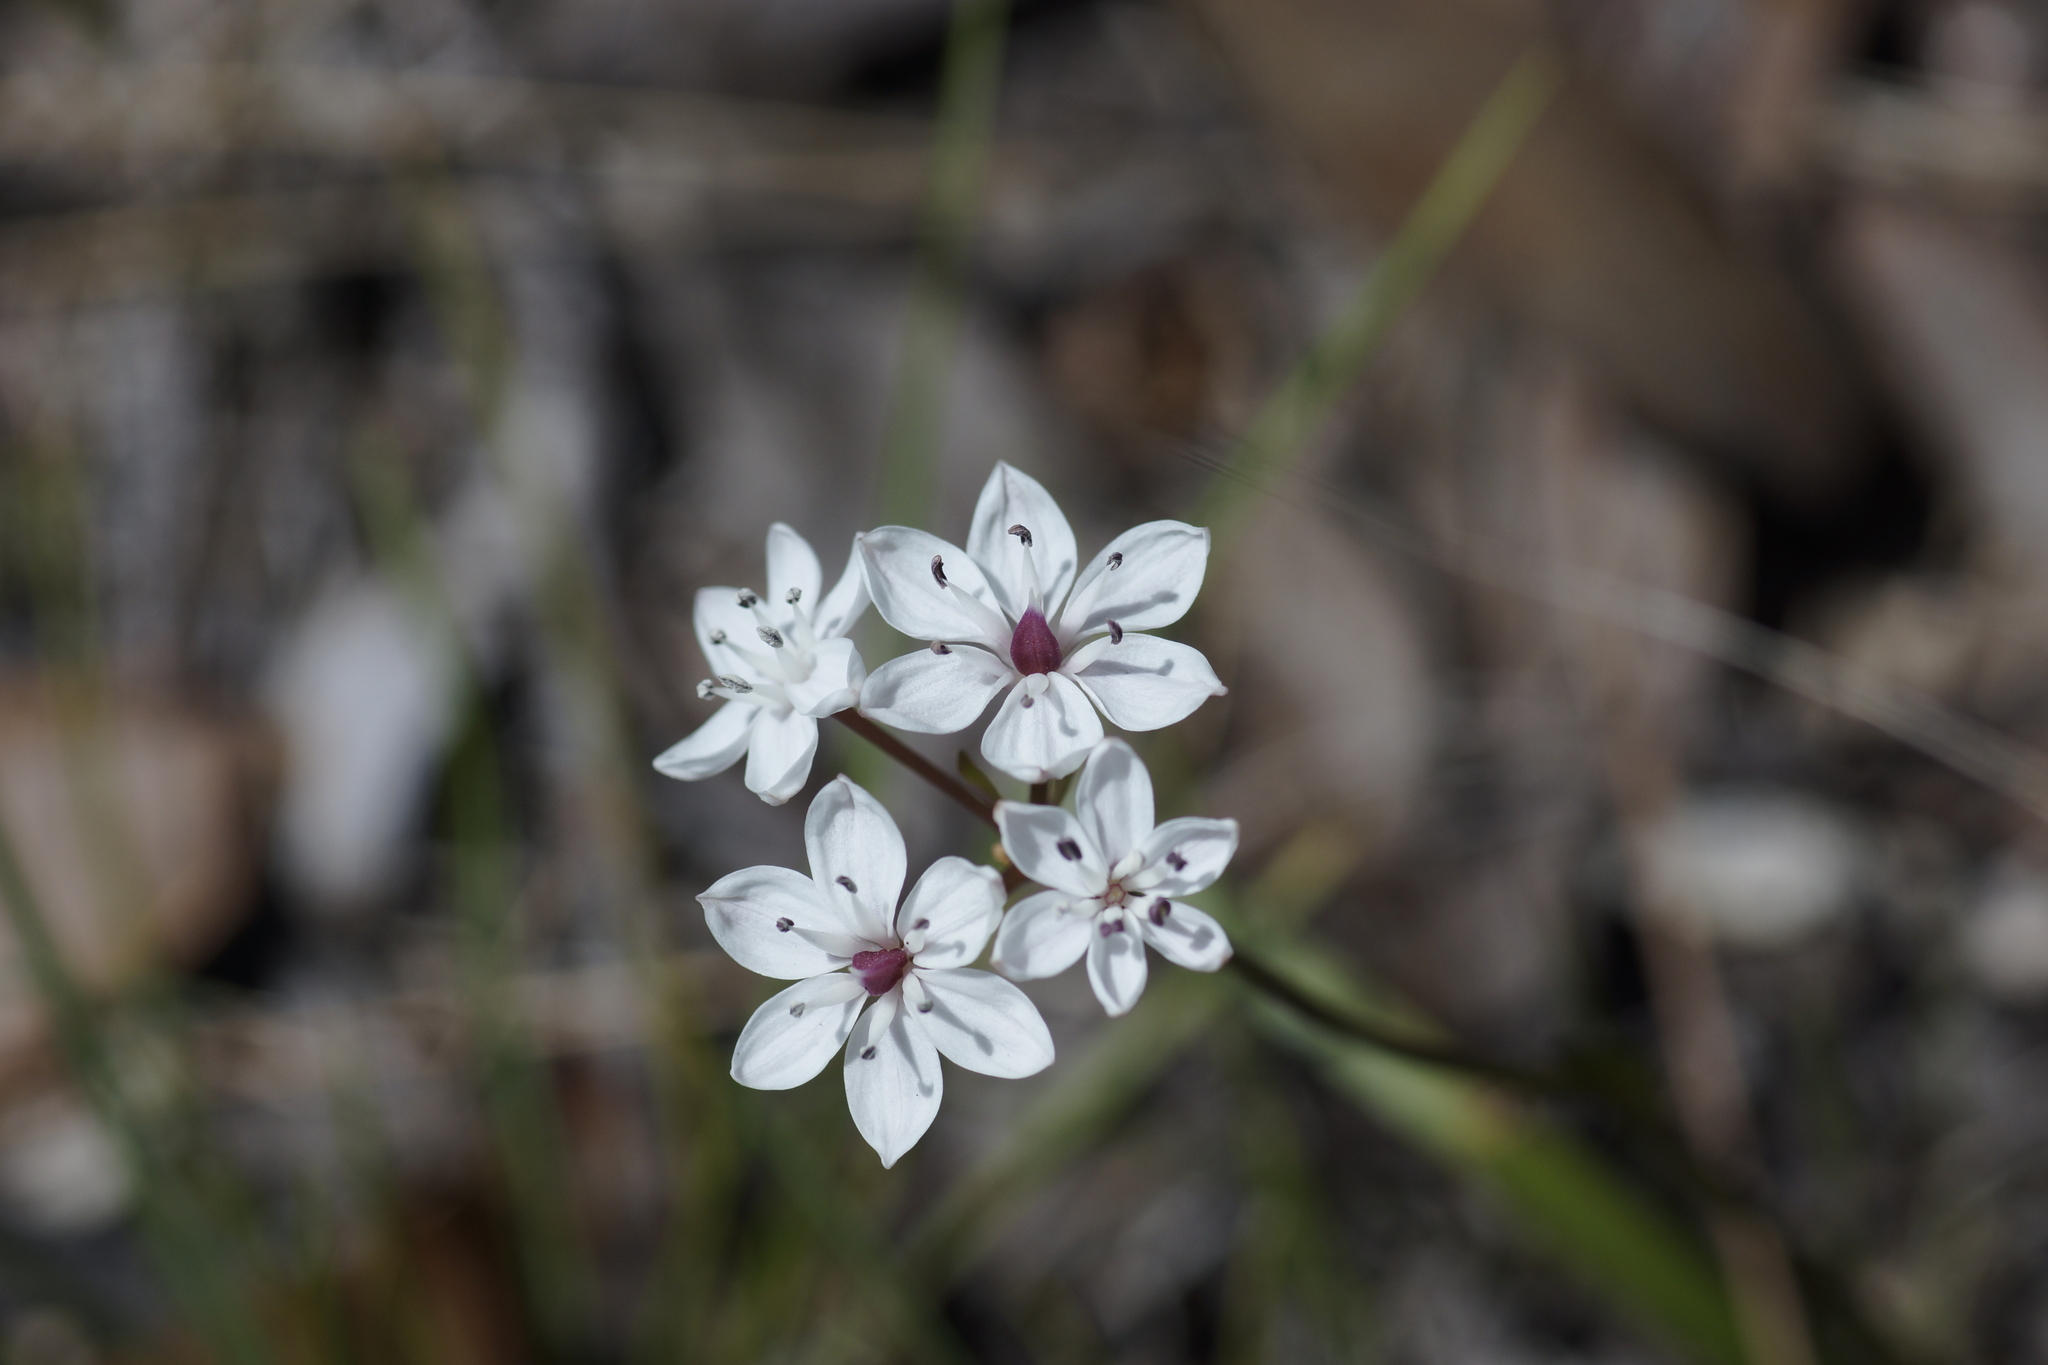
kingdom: Plantae
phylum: Tracheophyta
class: Liliopsida
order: Liliales
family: Colchicaceae
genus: Burchardia
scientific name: Burchardia umbellata
